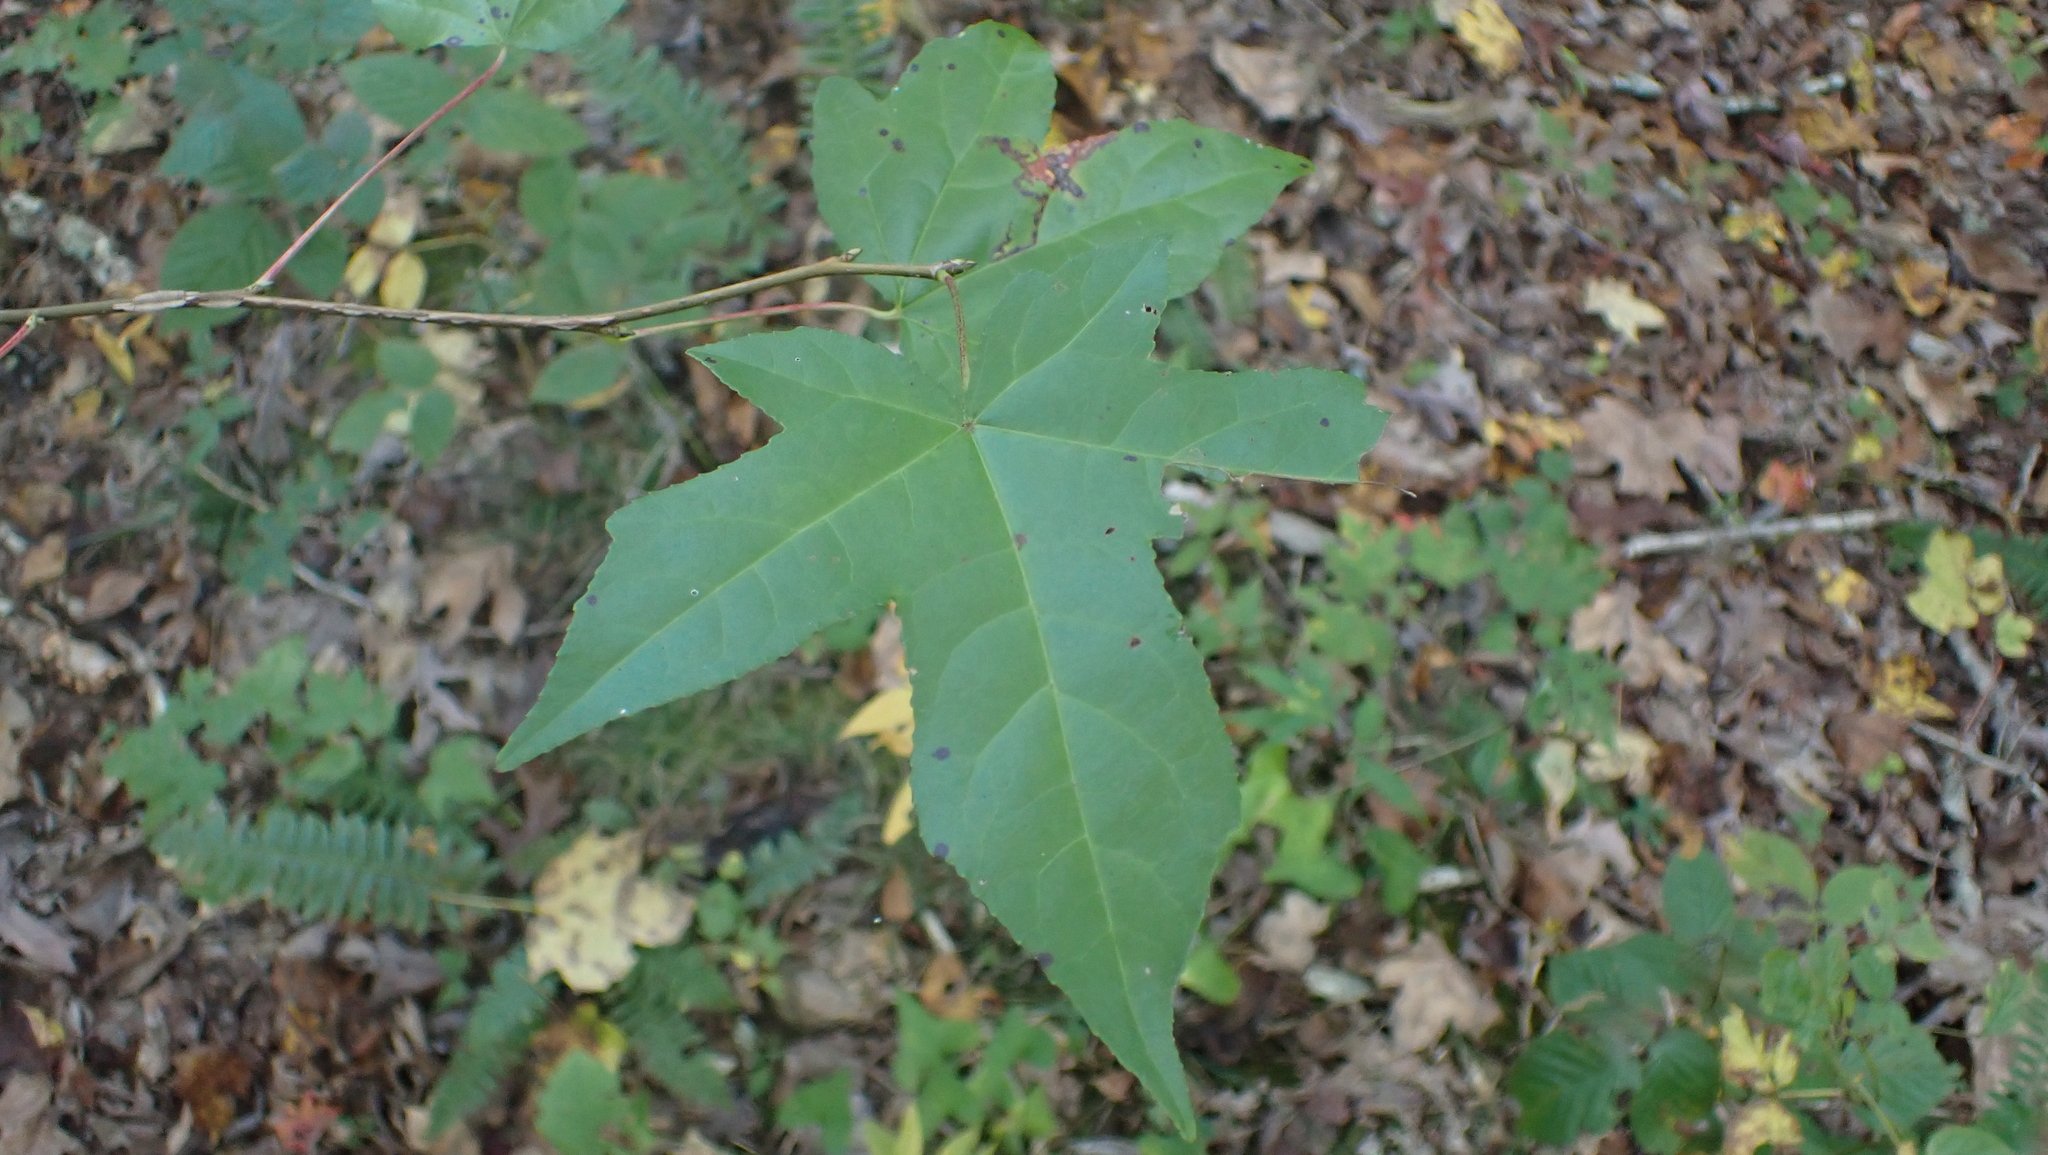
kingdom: Plantae
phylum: Tracheophyta
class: Magnoliopsida
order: Saxifragales
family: Altingiaceae
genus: Liquidambar
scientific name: Liquidambar styraciflua
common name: Sweet gum
